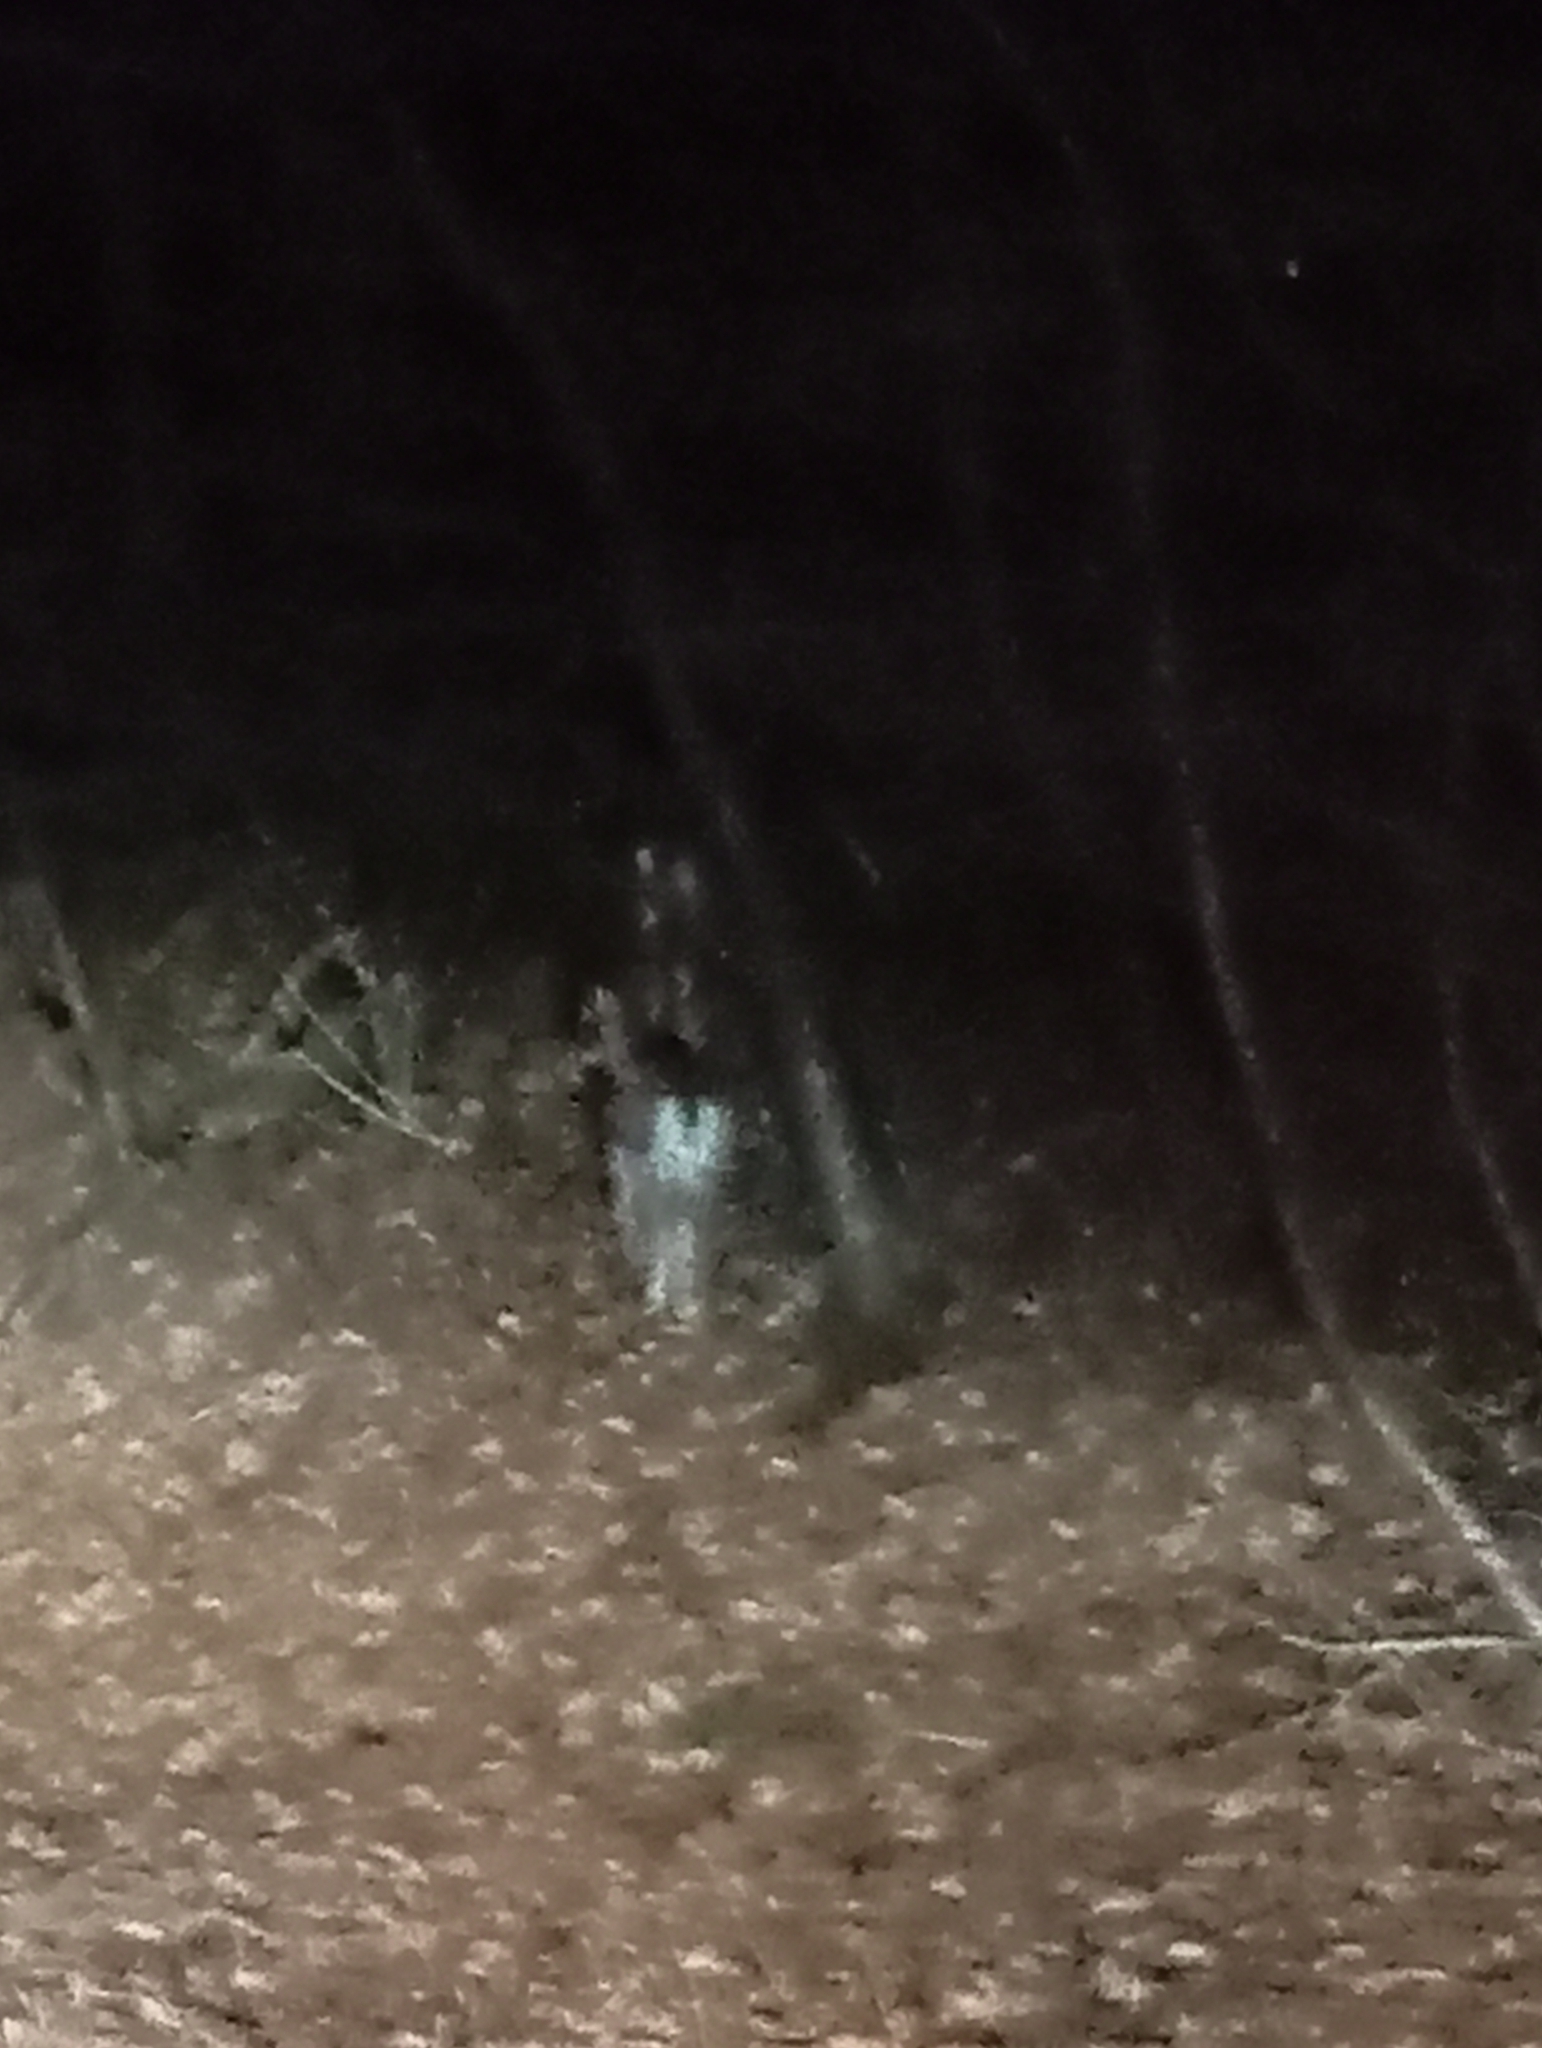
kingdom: Animalia
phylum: Chordata
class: Mammalia
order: Artiodactyla
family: Cervidae
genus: Dama
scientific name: Dama dama
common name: Fallow deer
